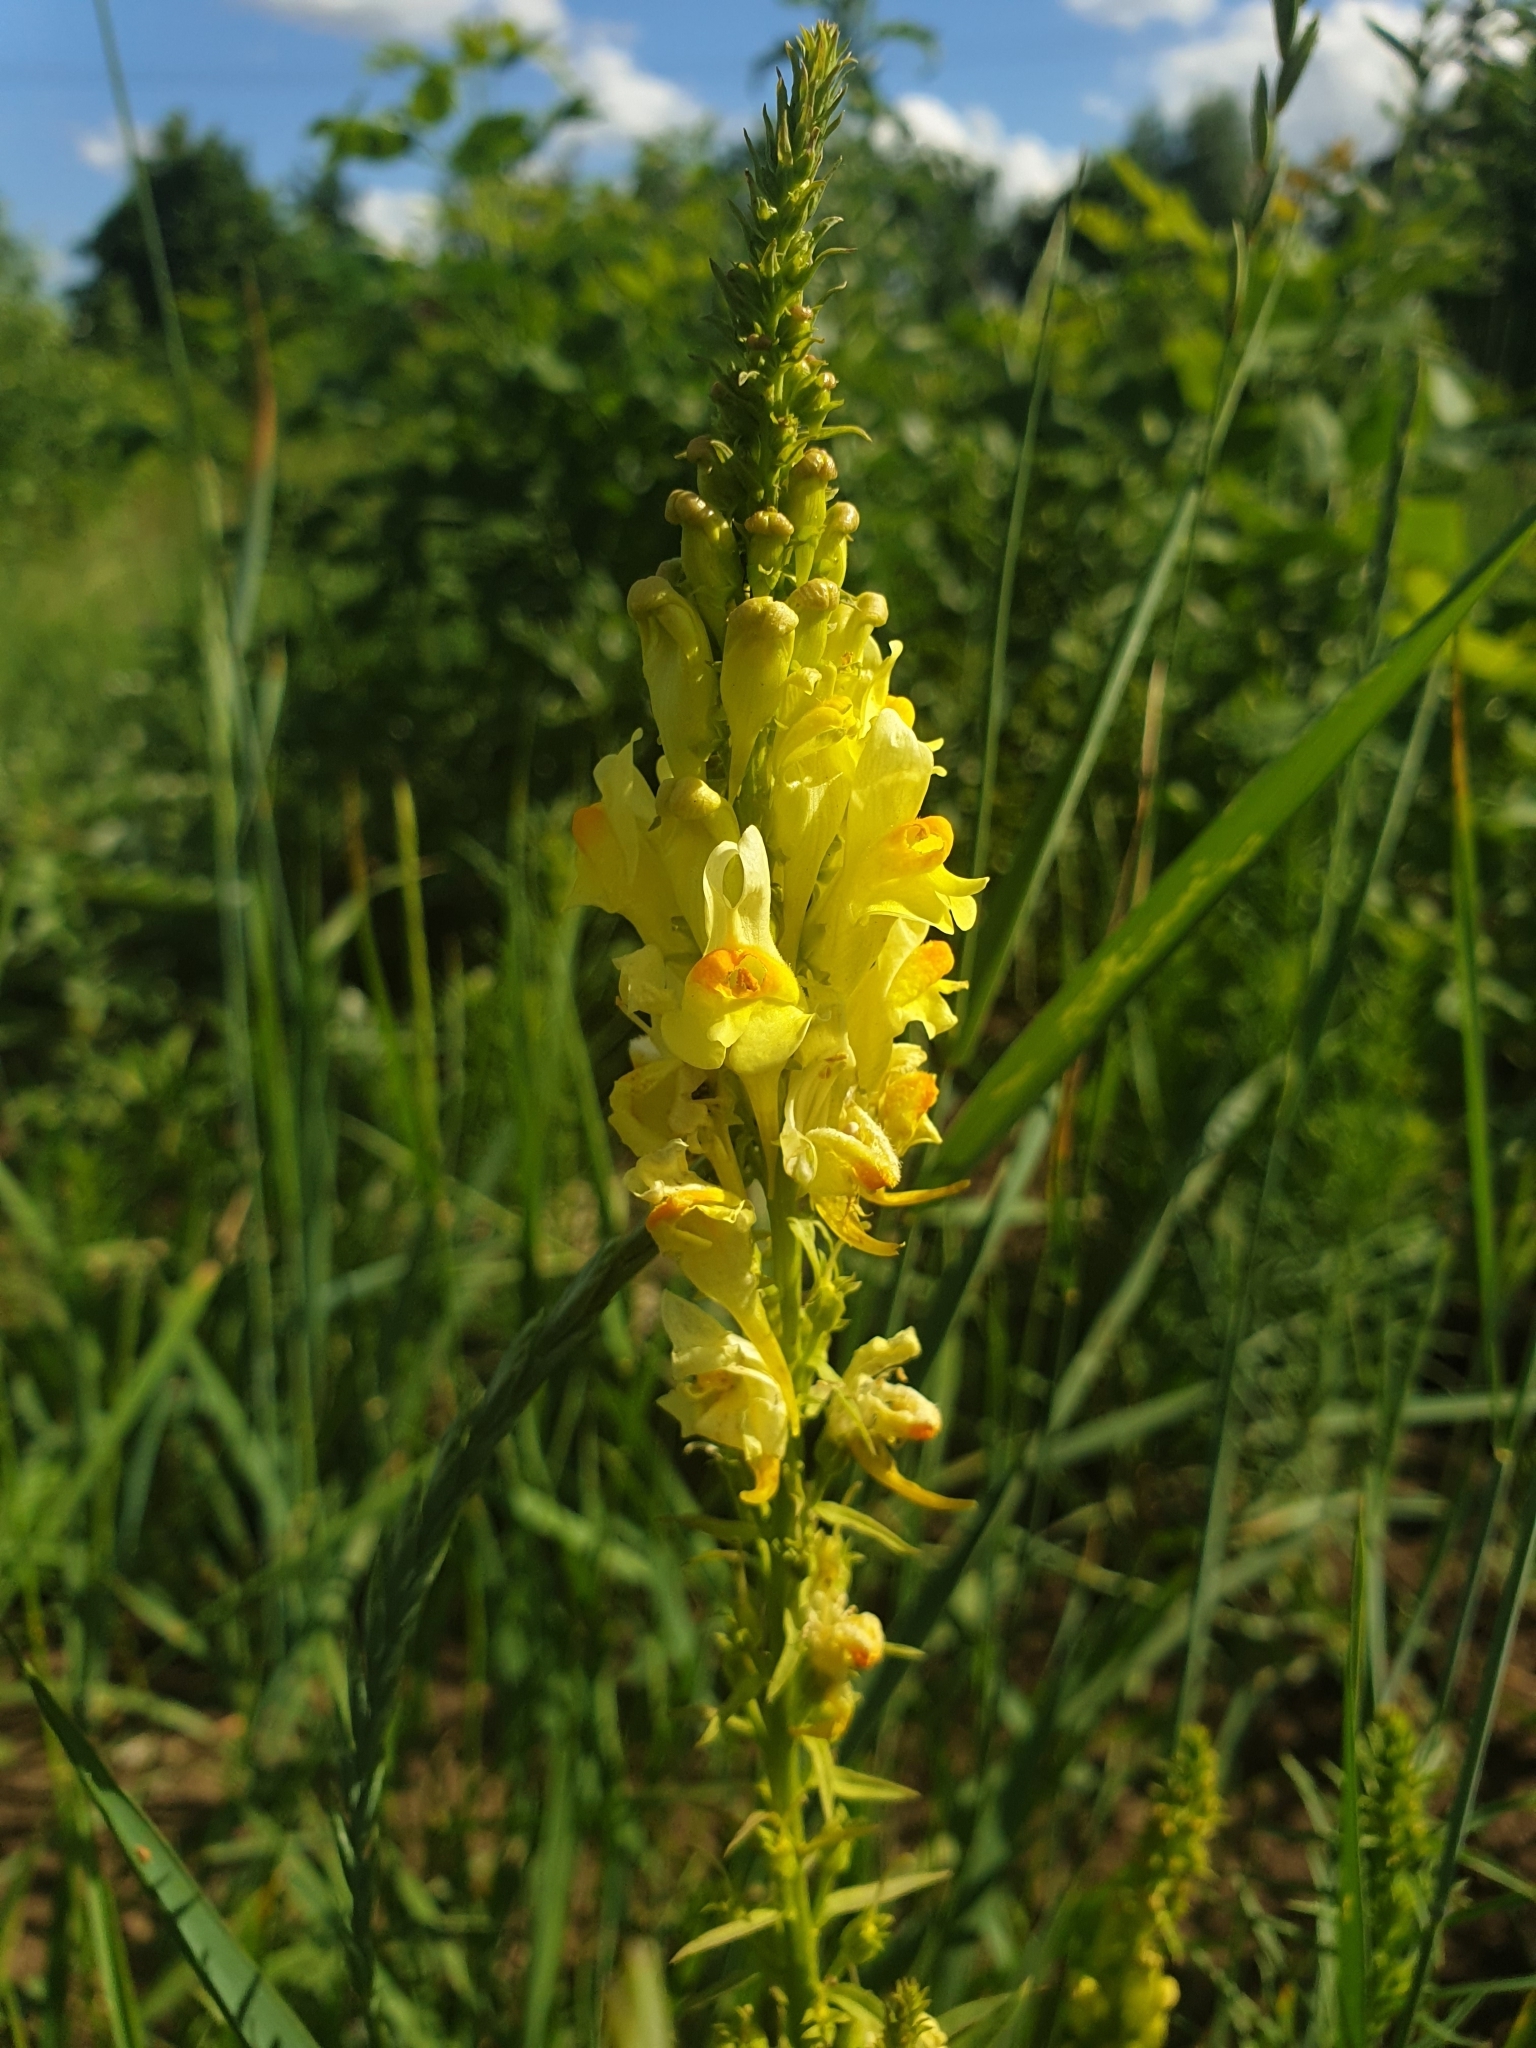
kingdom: Plantae
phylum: Tracheophyta
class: Magnoliopsida
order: Lamiales
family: Plantaginaceae
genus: Linaria
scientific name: Linaria biebersteinii
